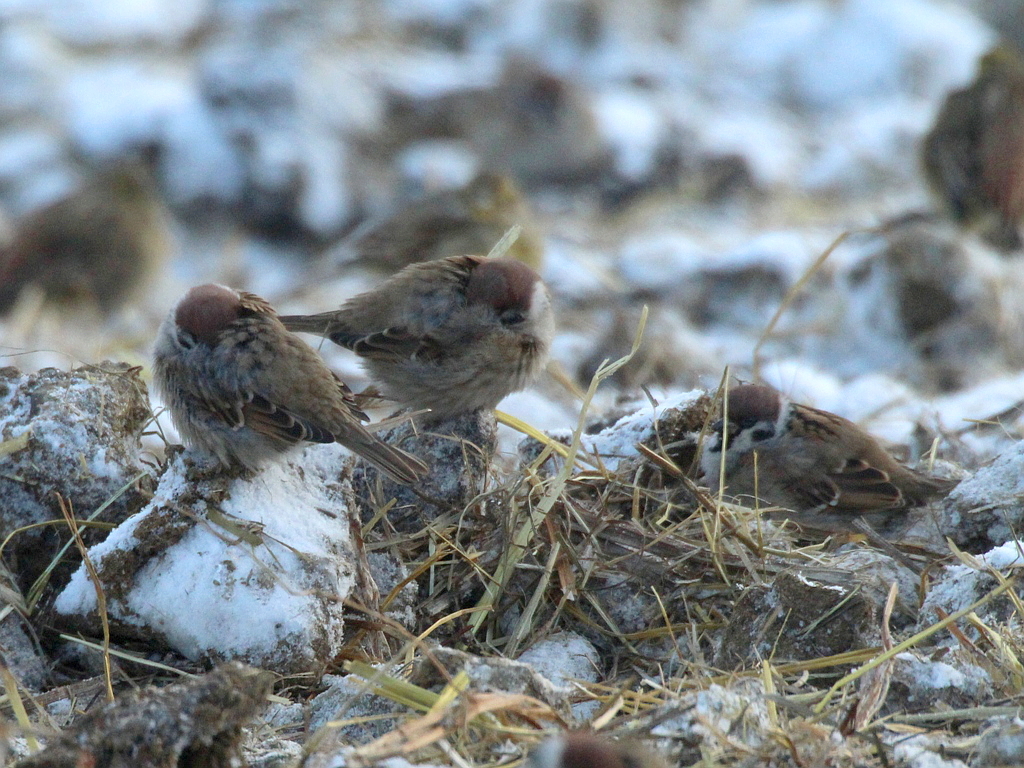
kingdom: Animalia
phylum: Chordata
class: Aves
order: Passeriformes
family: Passeridae
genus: Passer
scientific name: Passer montanus
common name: Eurasian tree sparrow
